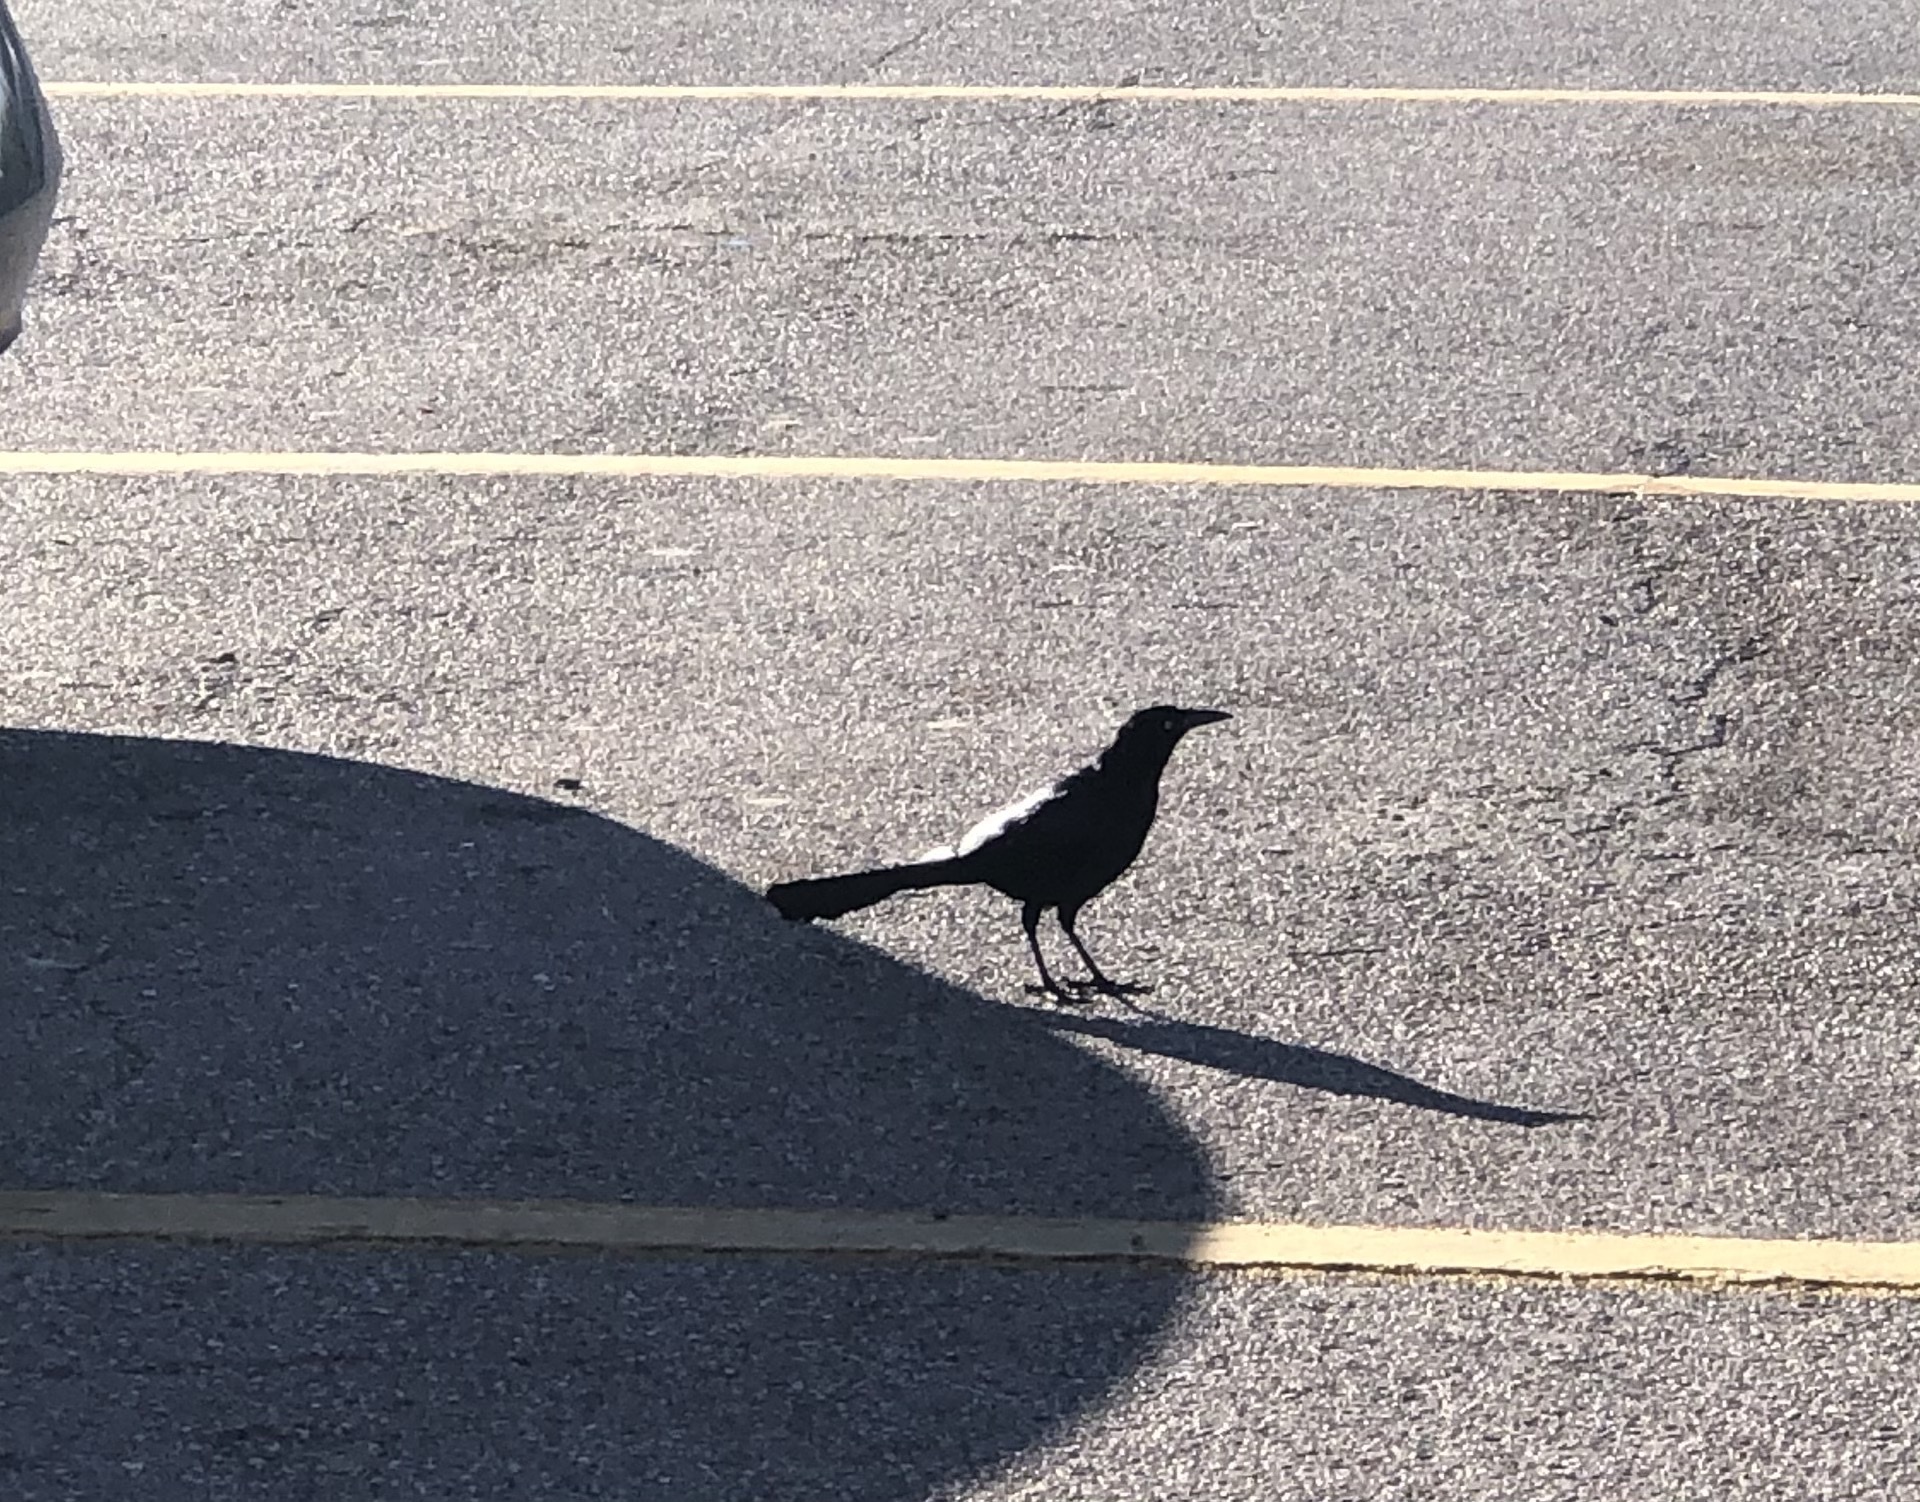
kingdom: Animalia
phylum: Chordata
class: Aves
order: Passeriformes
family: Icteridae
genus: Quiscalus
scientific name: Quiscalus mexicanus
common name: Great-tailed grackle
